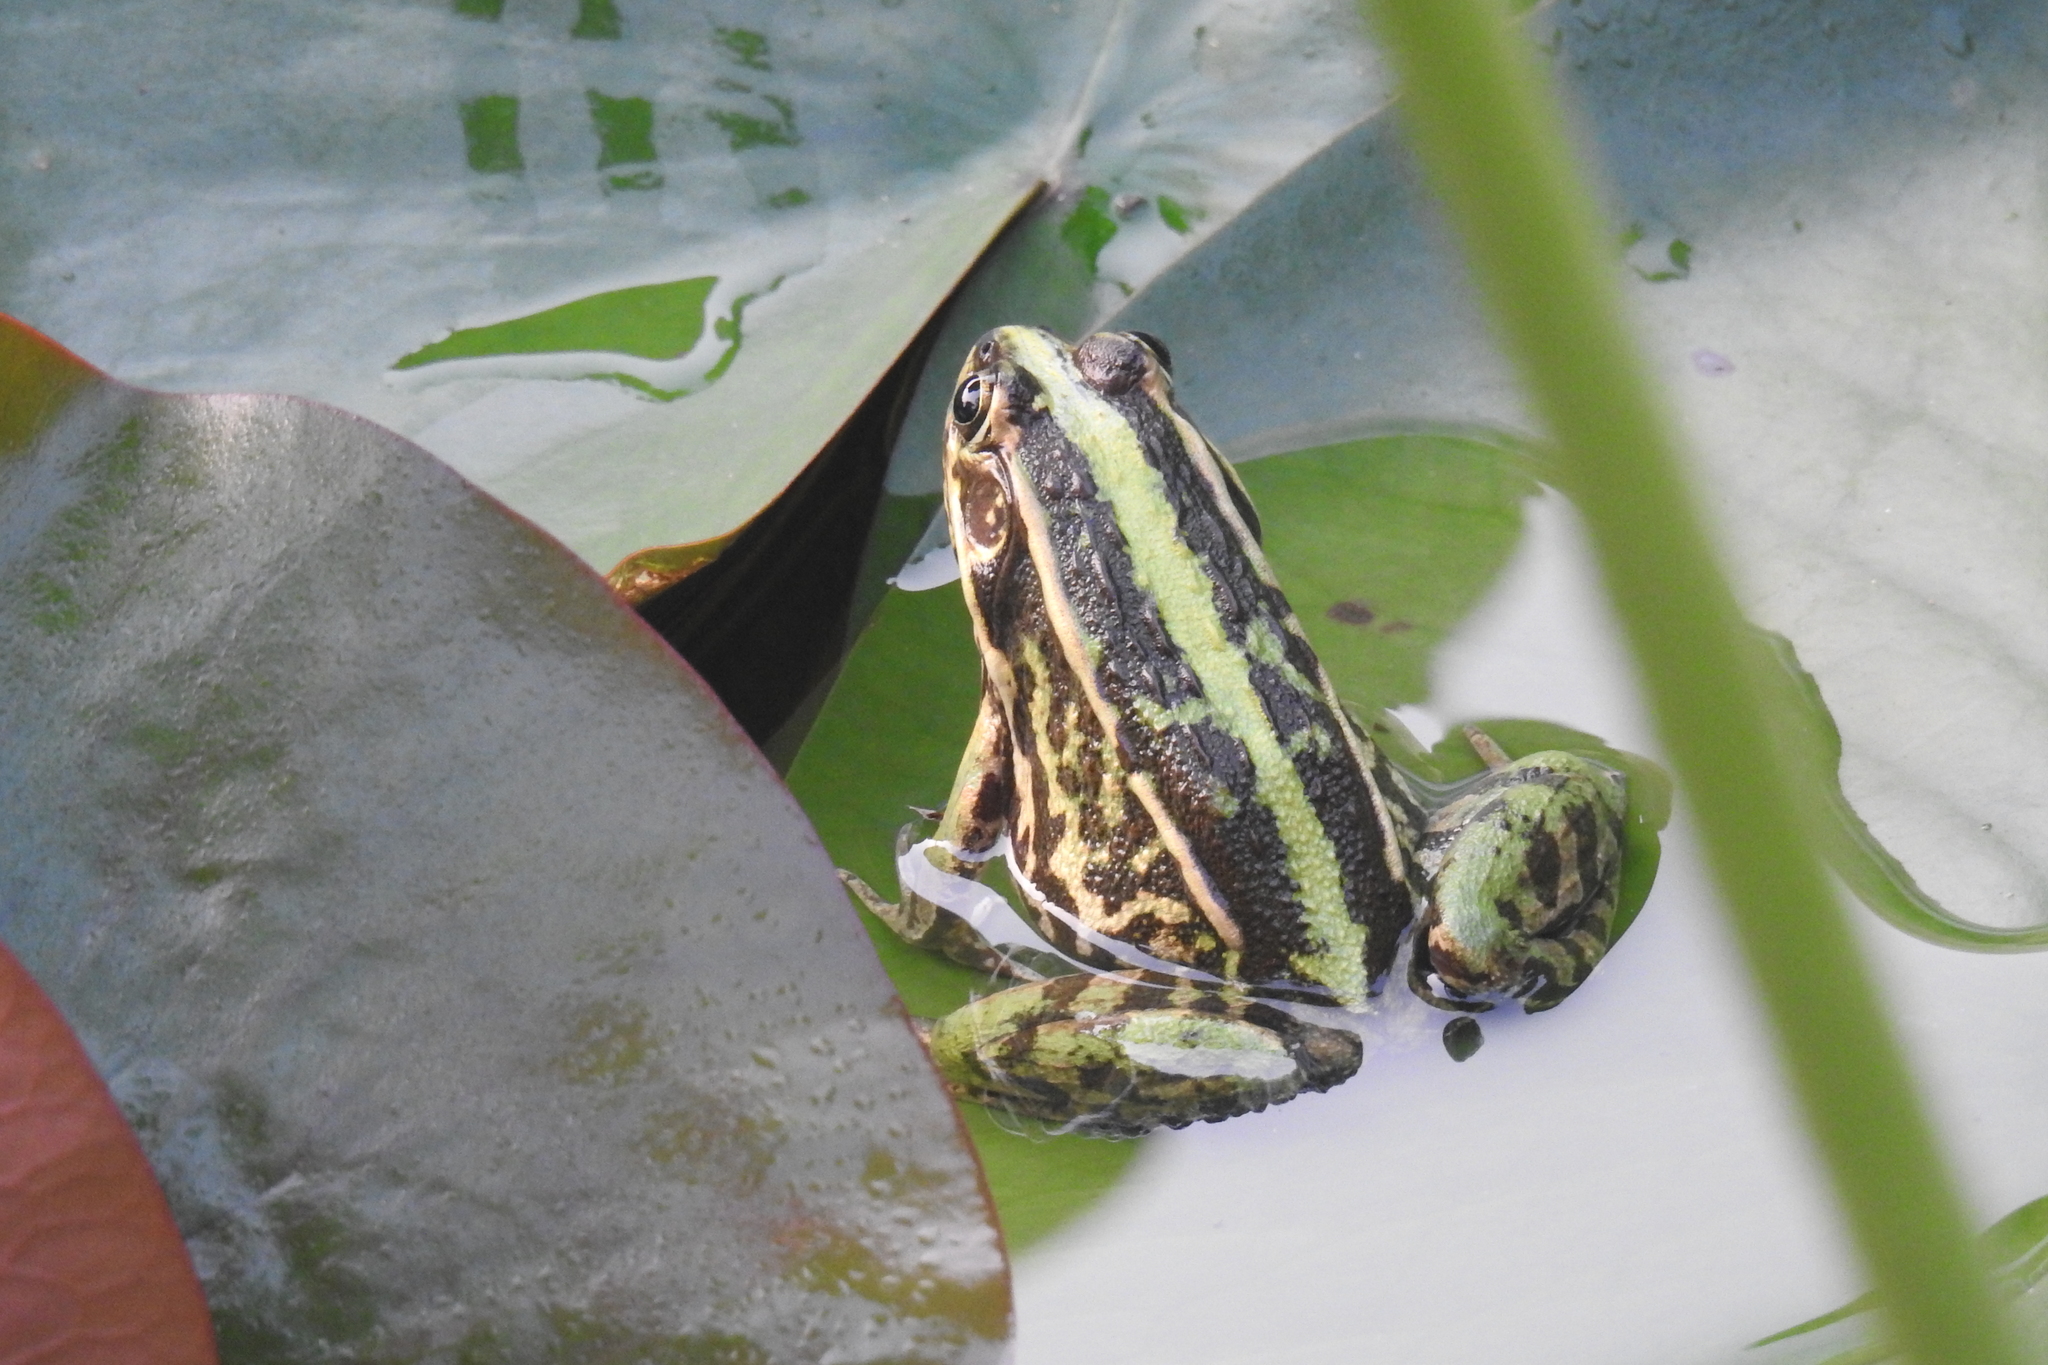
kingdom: Animalia
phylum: Chordata
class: Amphibia
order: Anura
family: Ranidae
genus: Pelophylax
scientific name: Pelophylax nigromaculatus
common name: Black-spotted pond frog
